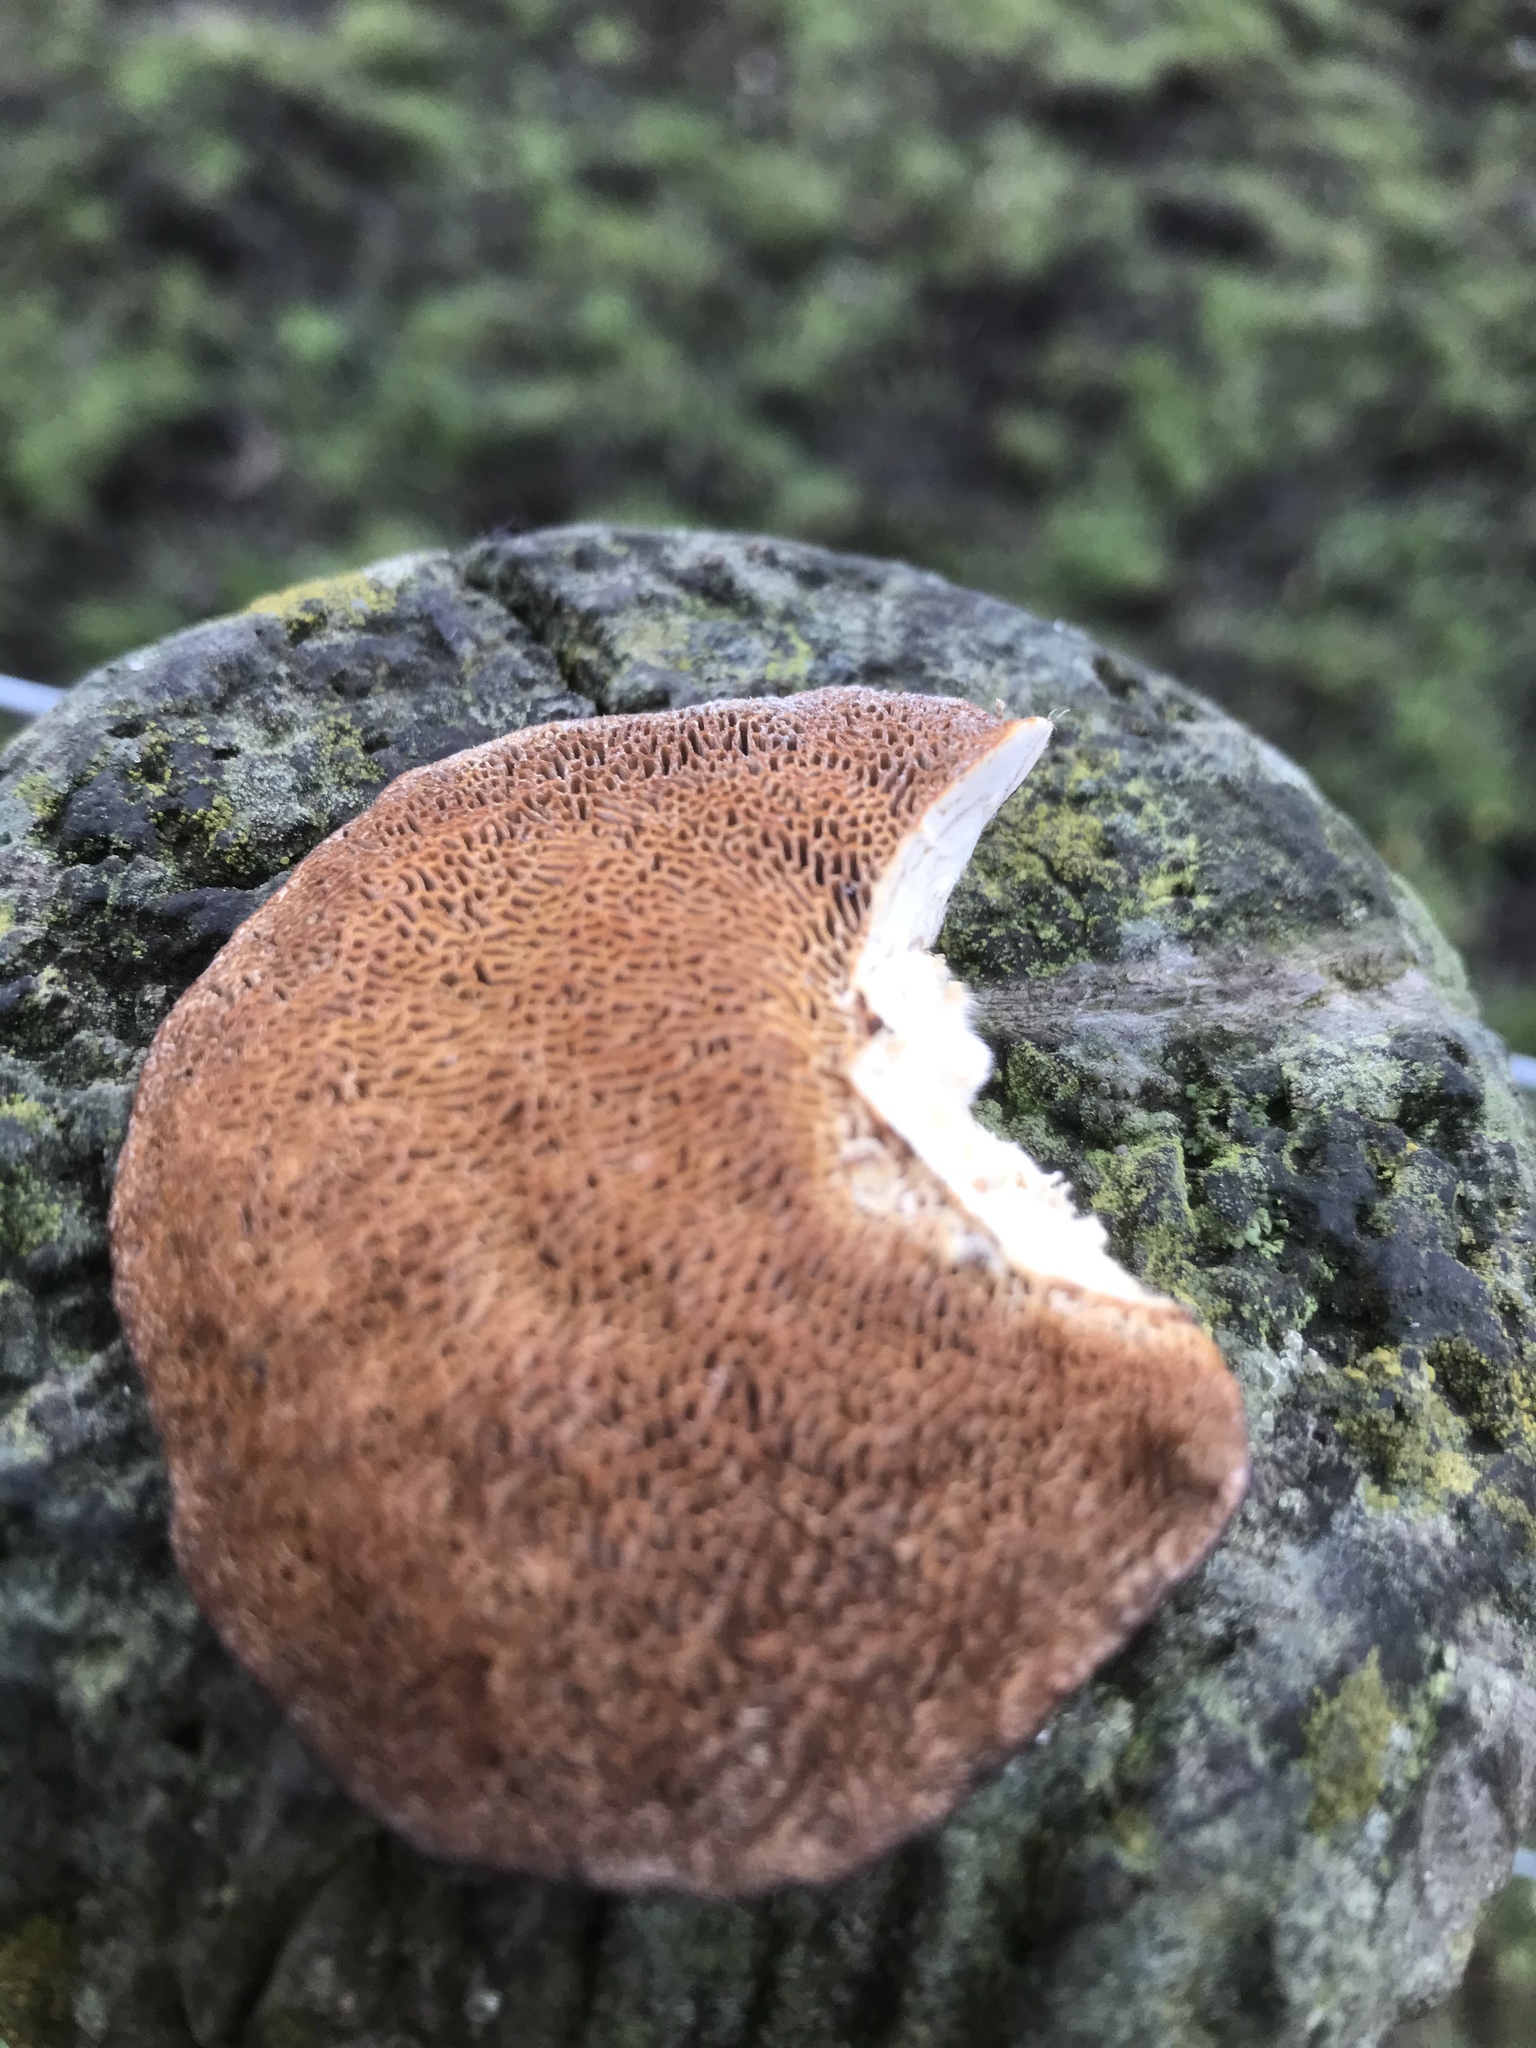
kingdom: Fungi
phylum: Basidiomycota
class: Agaricomycetes
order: Polyporales
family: Polyporaceae
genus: Daedaleopsis
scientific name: Daedaleopsis confragosa
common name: Blushing bracket
